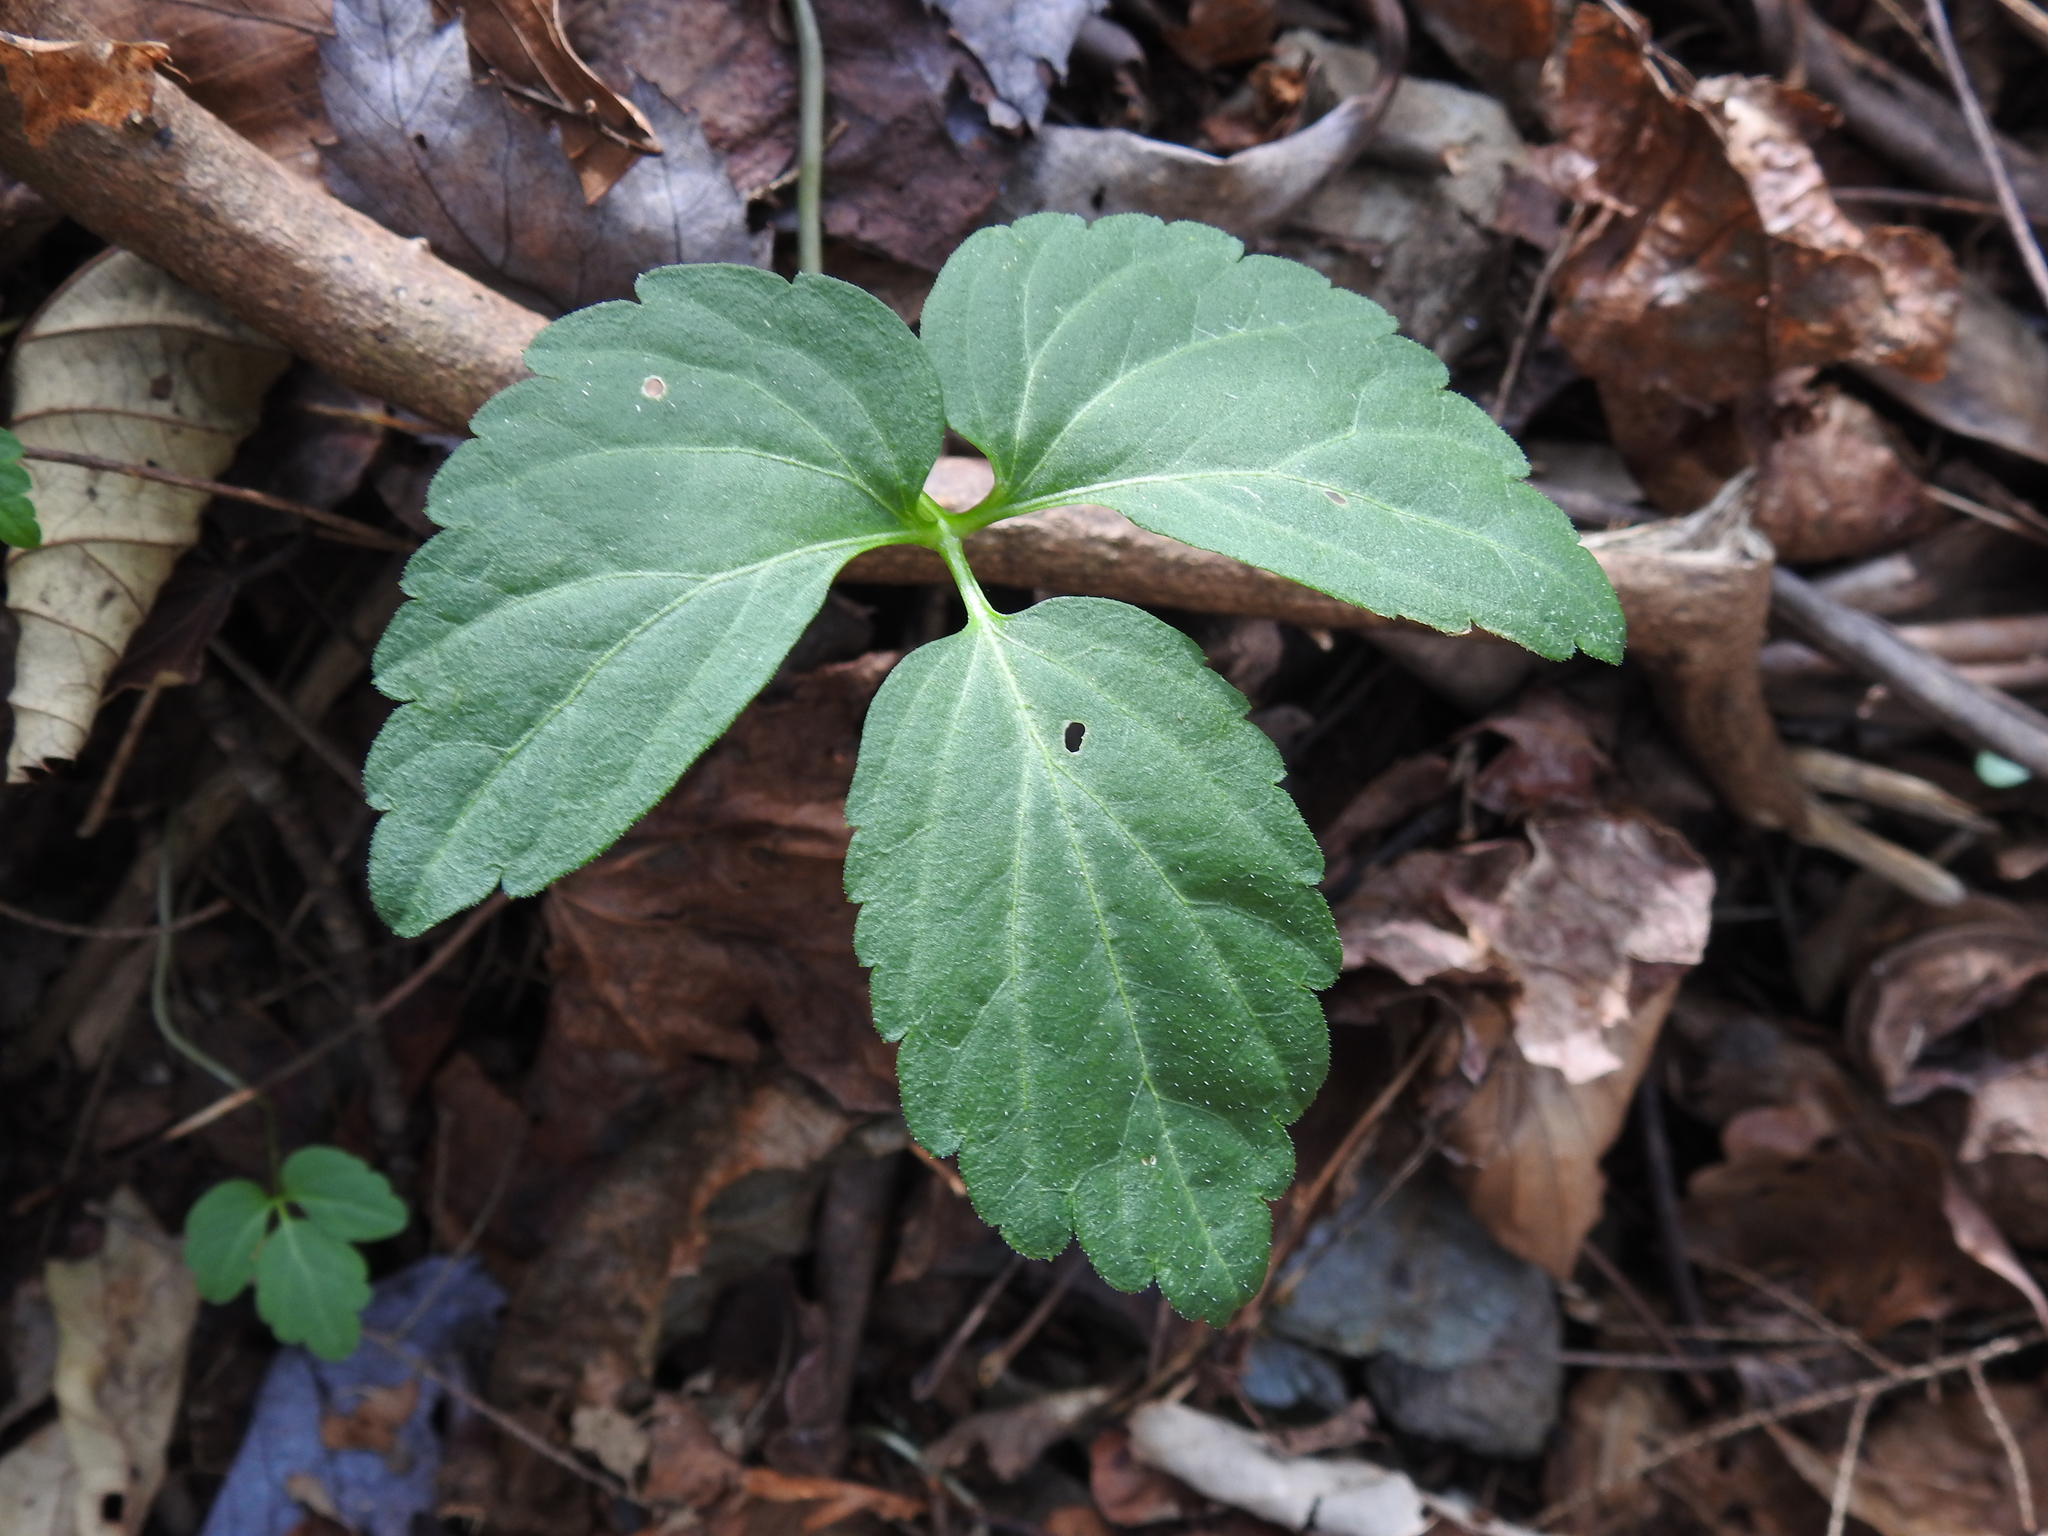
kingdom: Plantae
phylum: Tracheophyta
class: Magnoliopsida
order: Brassicales
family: Brassicaceae
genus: Cardamine
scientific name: Cardamine diphylla
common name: Broad-leaved toothwort
